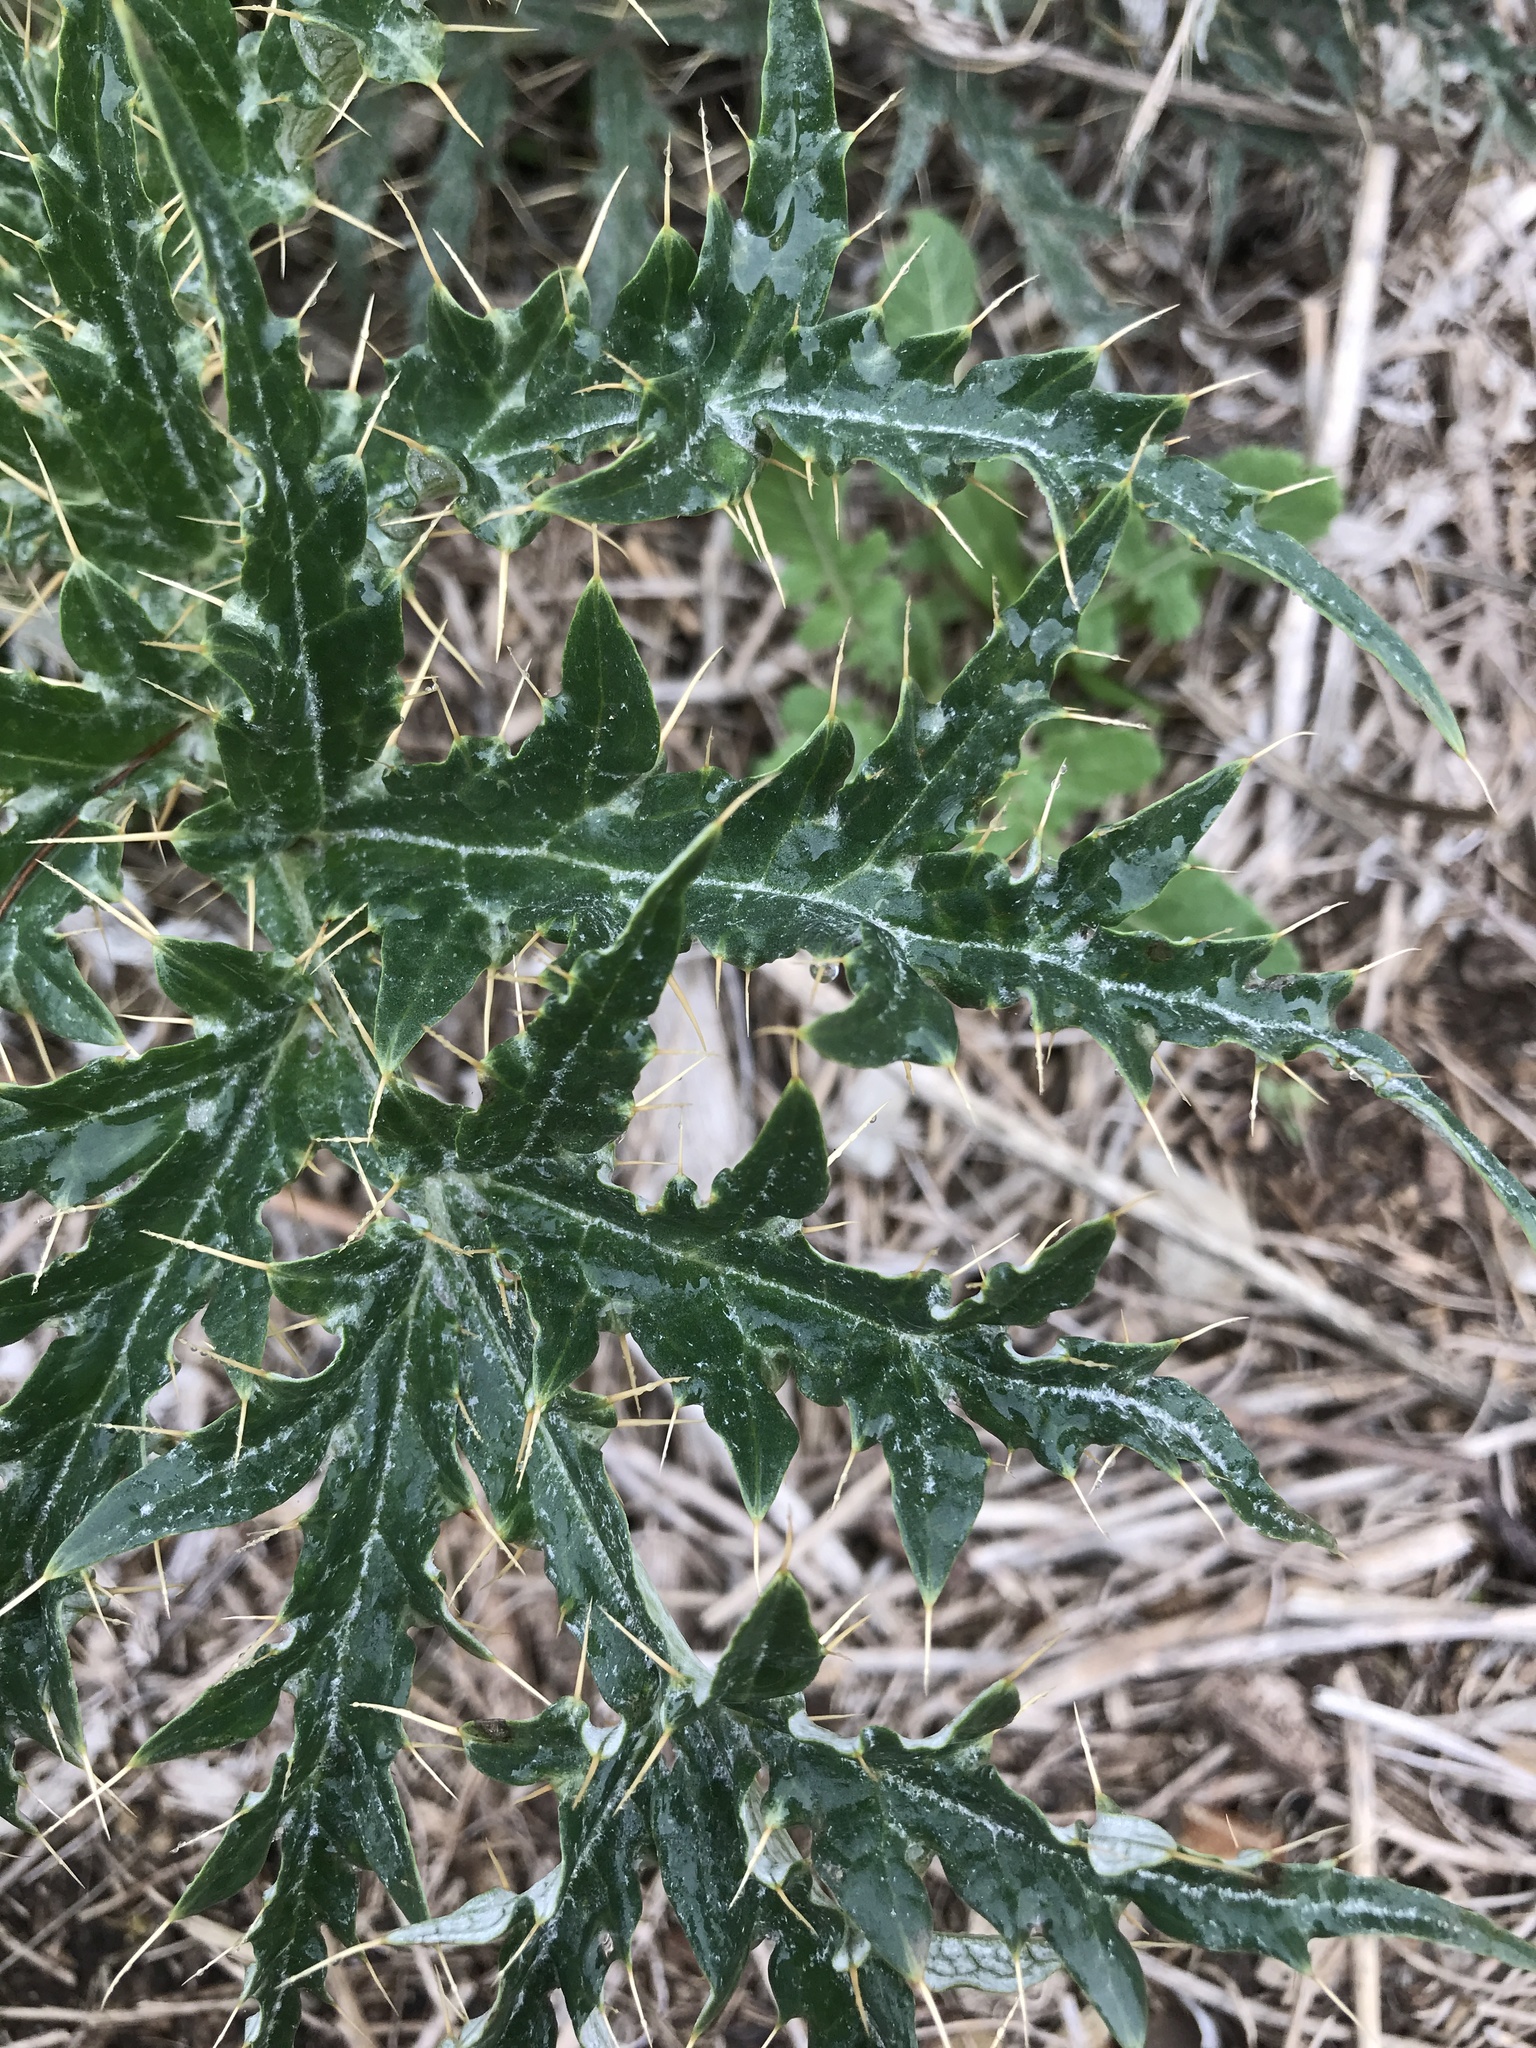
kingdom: Plantae
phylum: Tracheophyta
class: Magnoliopsida
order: Asterales
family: Asteraceae
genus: Cynara
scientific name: Cynara cardunculus
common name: Globe artichoke
